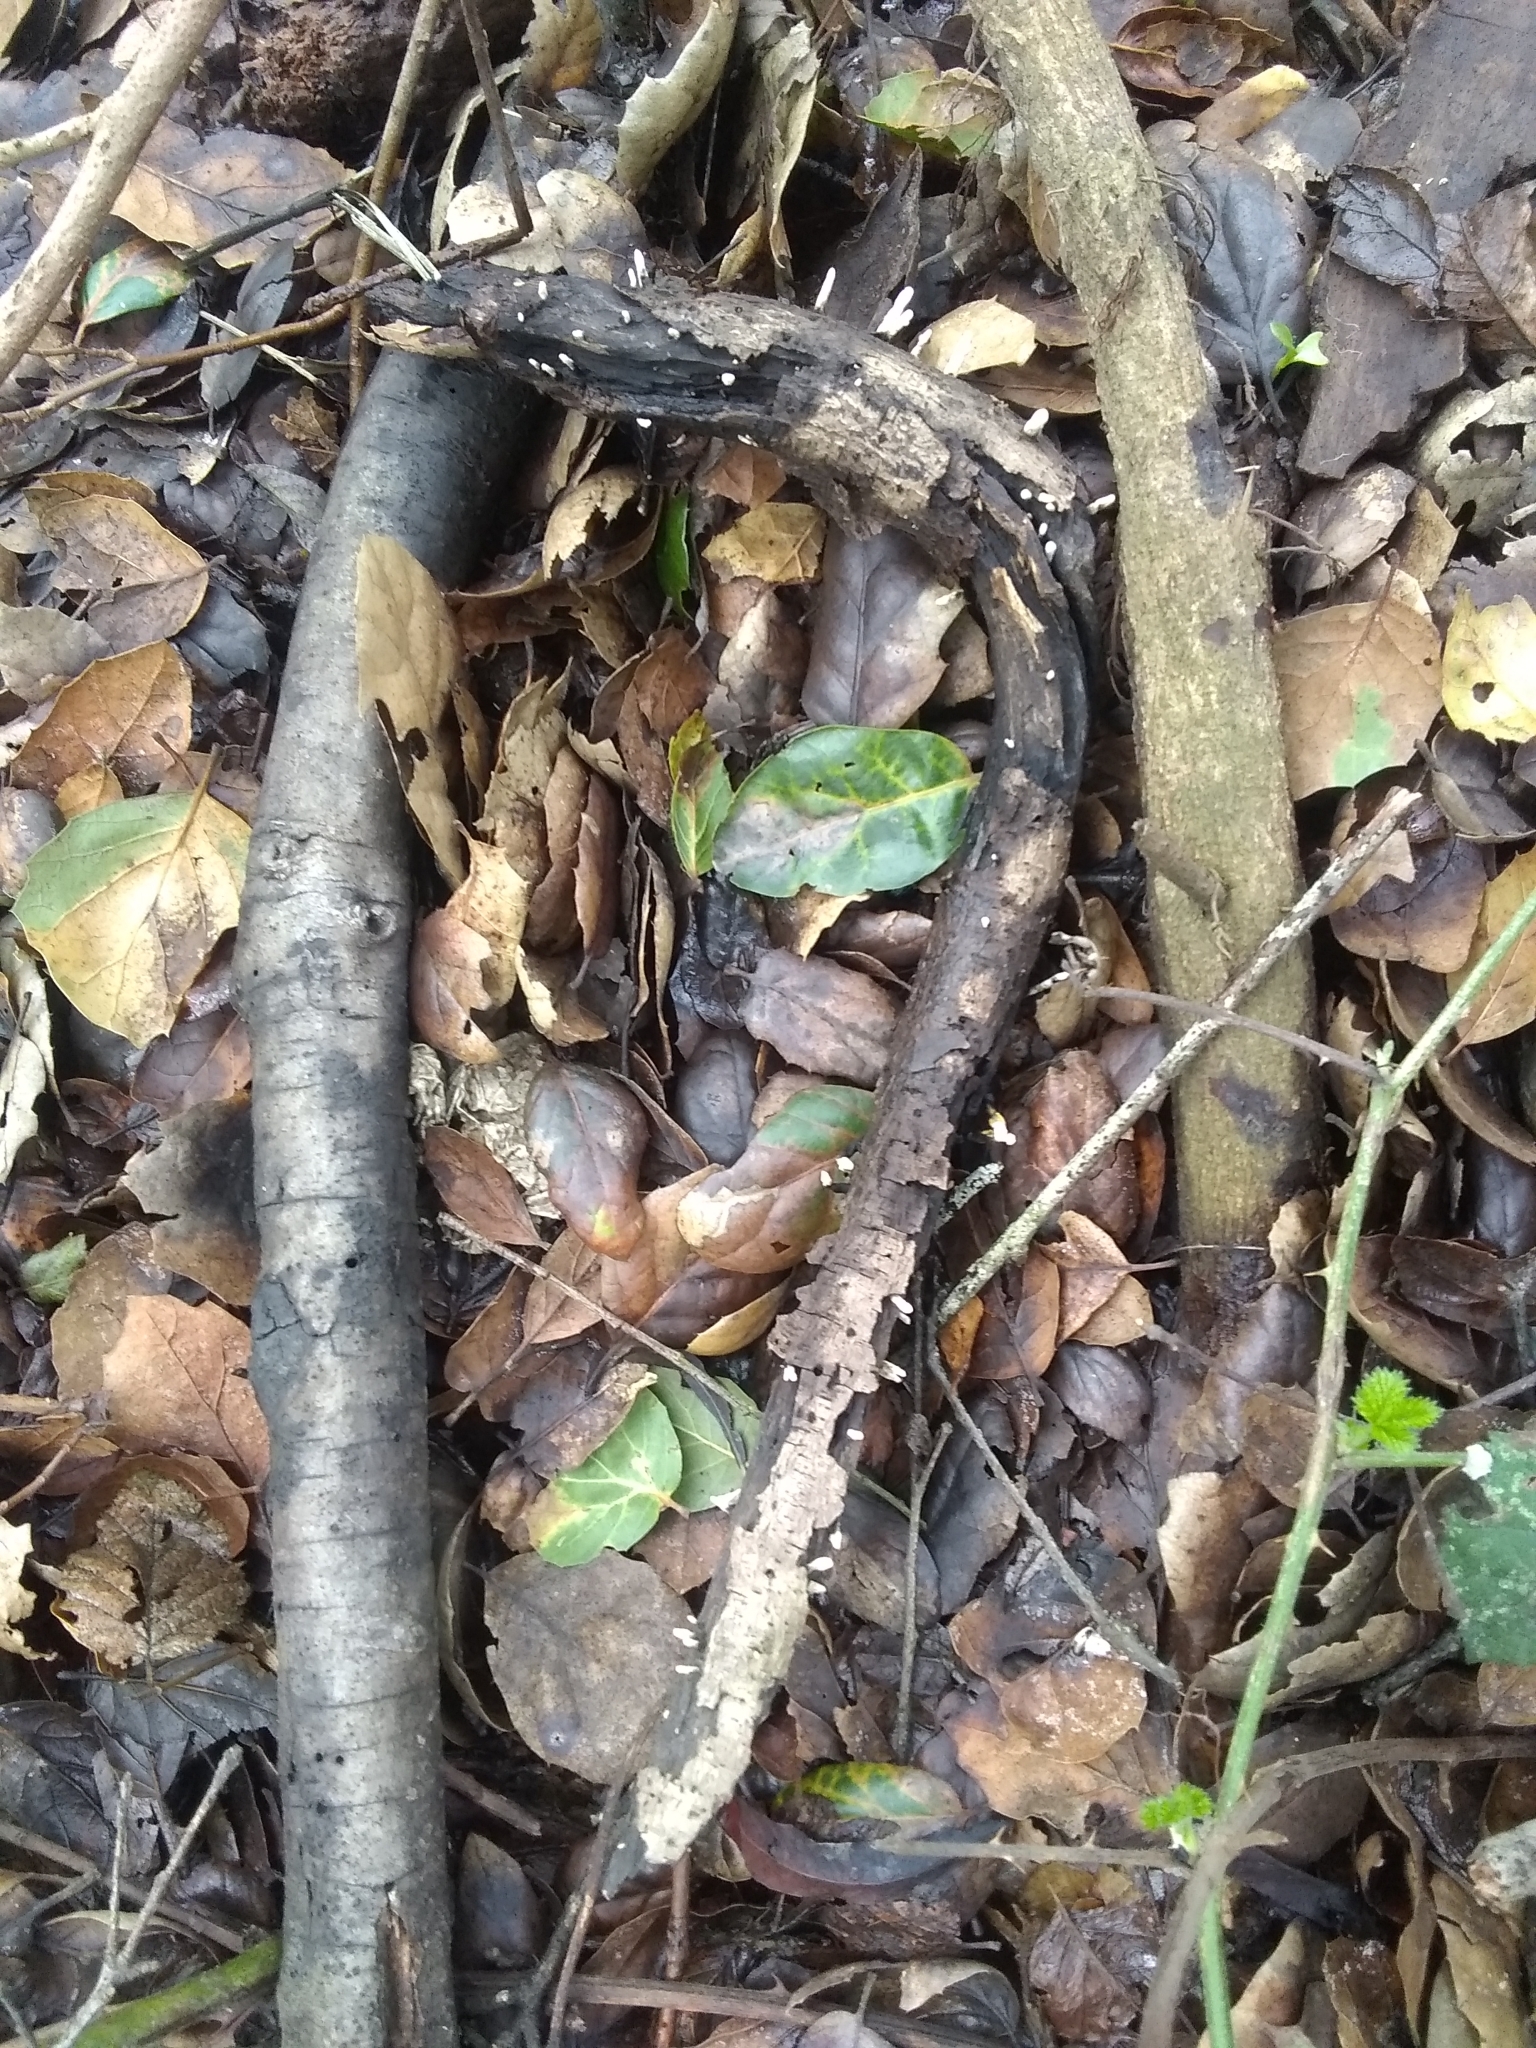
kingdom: Fungi
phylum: Ascomycota
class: Sordariomycetes
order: Xylariales
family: Xylariaceae
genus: Xylaria
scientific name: Xylaria hypoxylon
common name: Candle-snuff fungus
